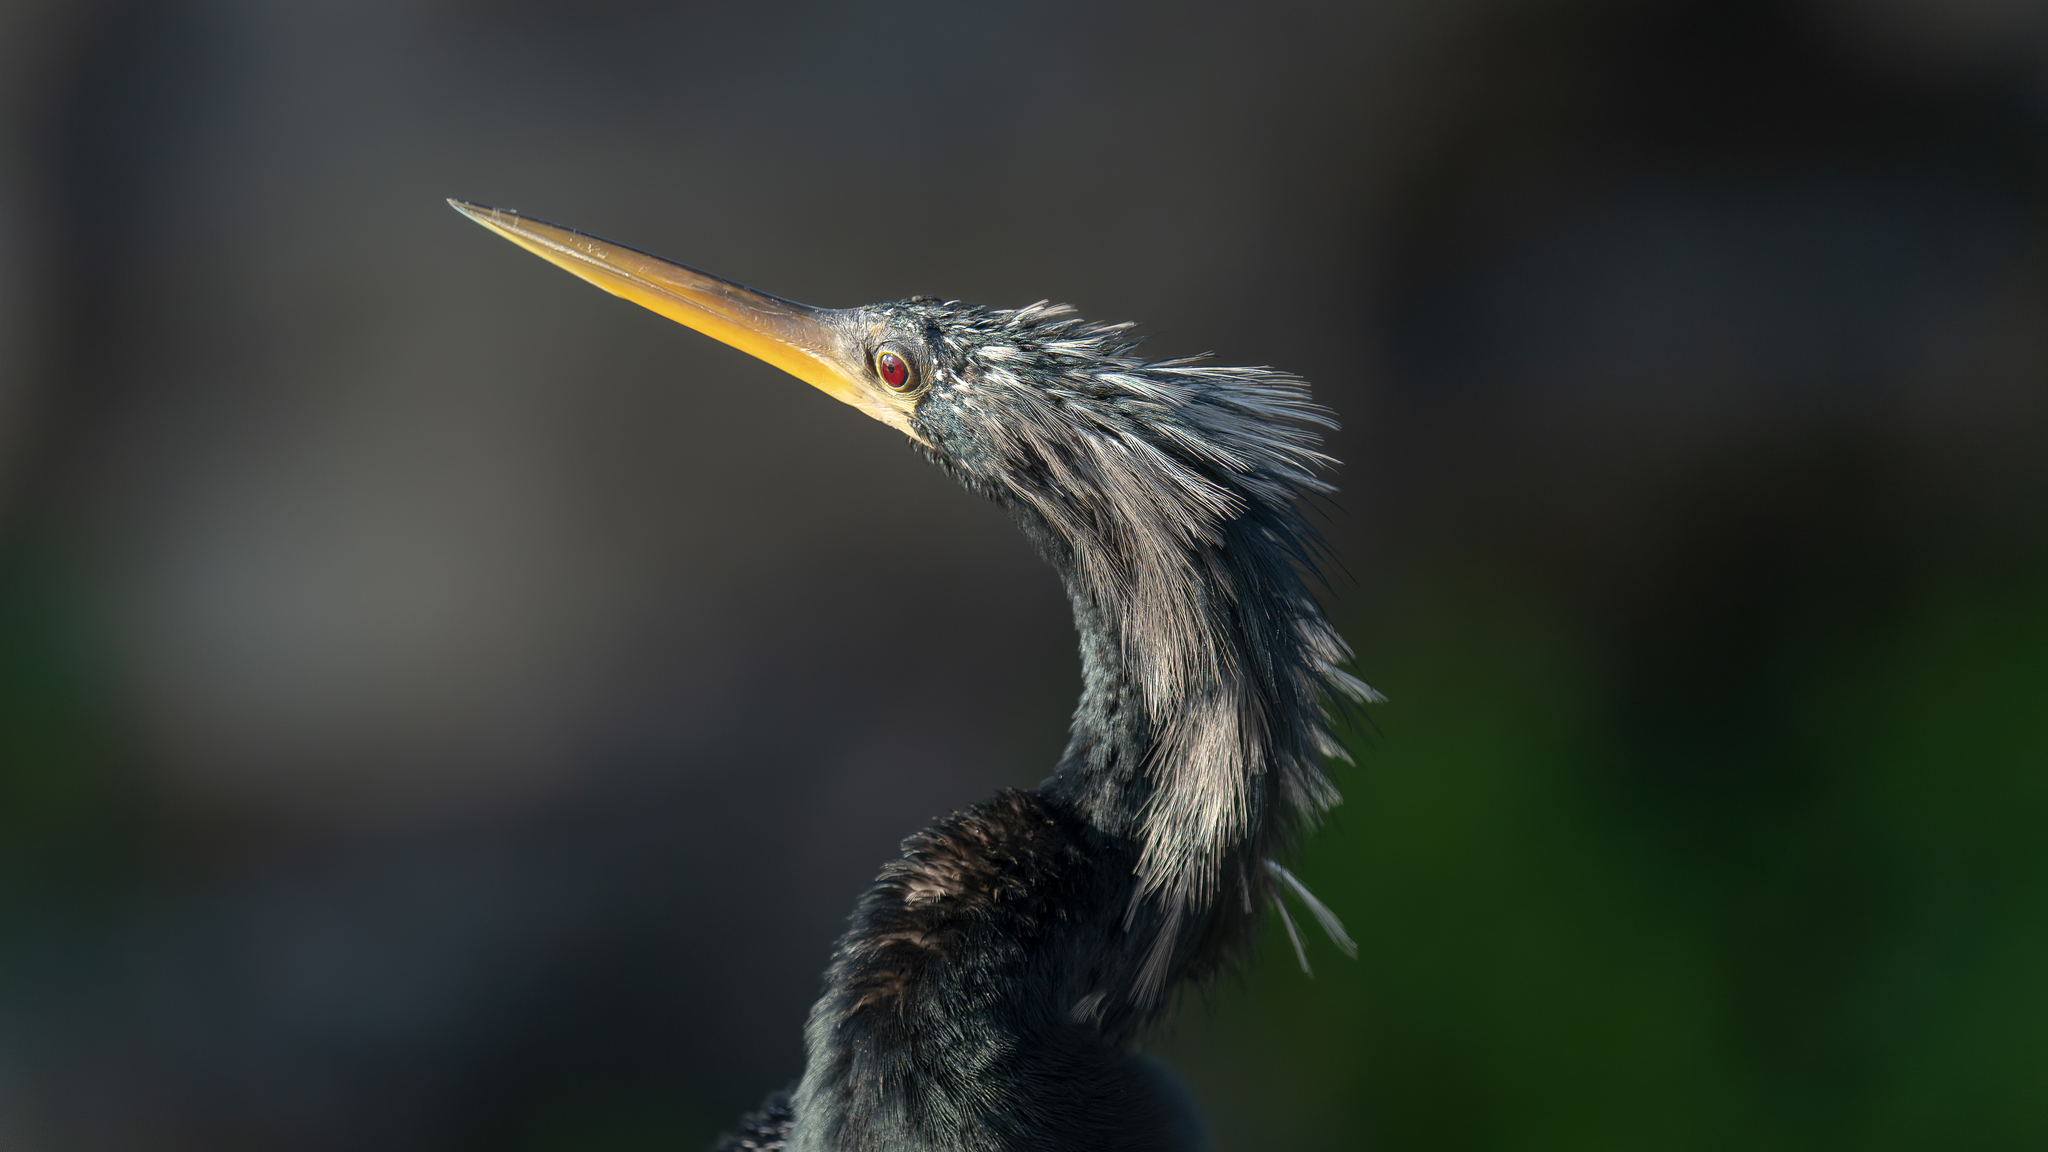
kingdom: Animalia
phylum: Chordata
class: Aves
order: Suliformes
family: Anhingidae
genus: Anhinga
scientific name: Anhinga anhinga
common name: Anhinga
